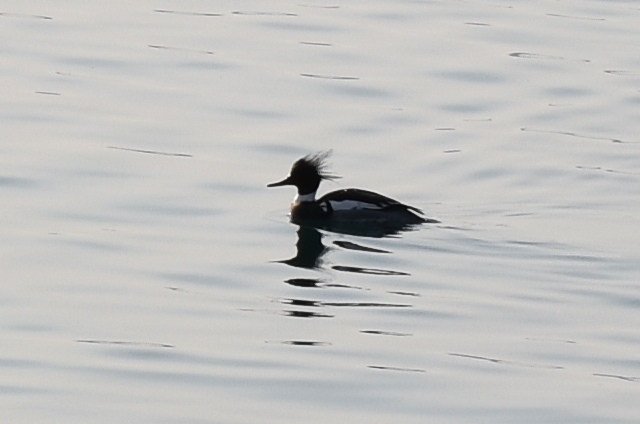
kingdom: Animalia
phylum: Chordata
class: Aves
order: Anseriformes
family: Anatidae
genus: Mergus
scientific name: Mergus serrator
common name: Red-breasted merganser
